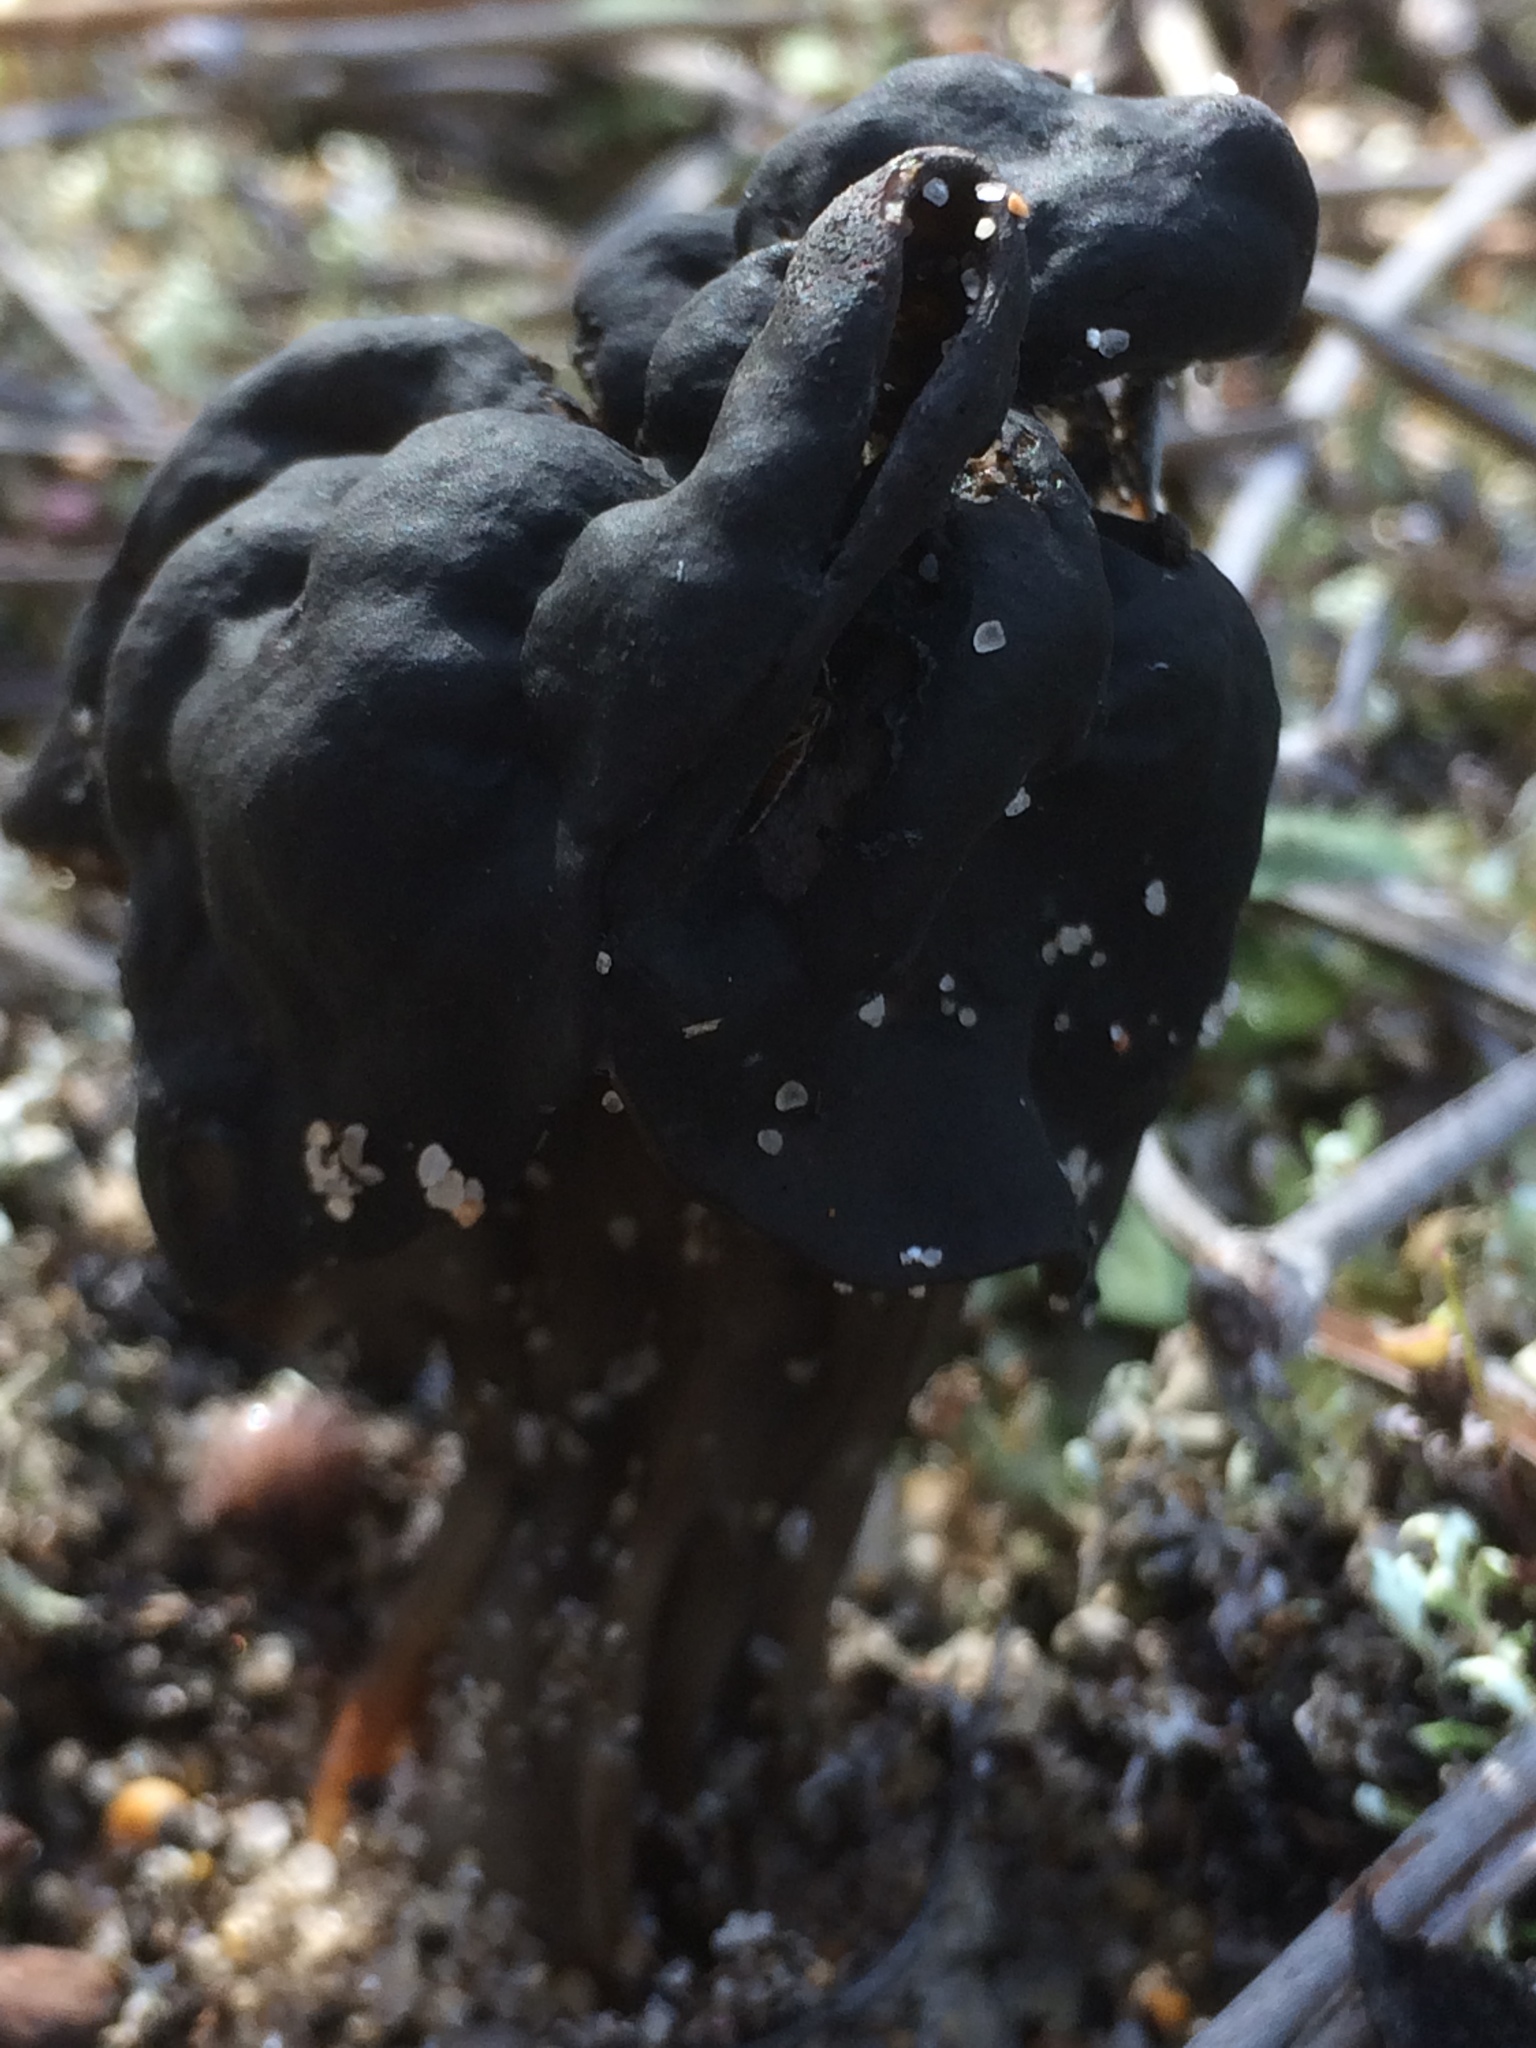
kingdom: Fungi
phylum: Ascomycota
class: Pezizomycetes
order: Pezizales
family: Helvellaceae
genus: Helvella
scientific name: Helvella lacunosa
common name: Elfin saddle
